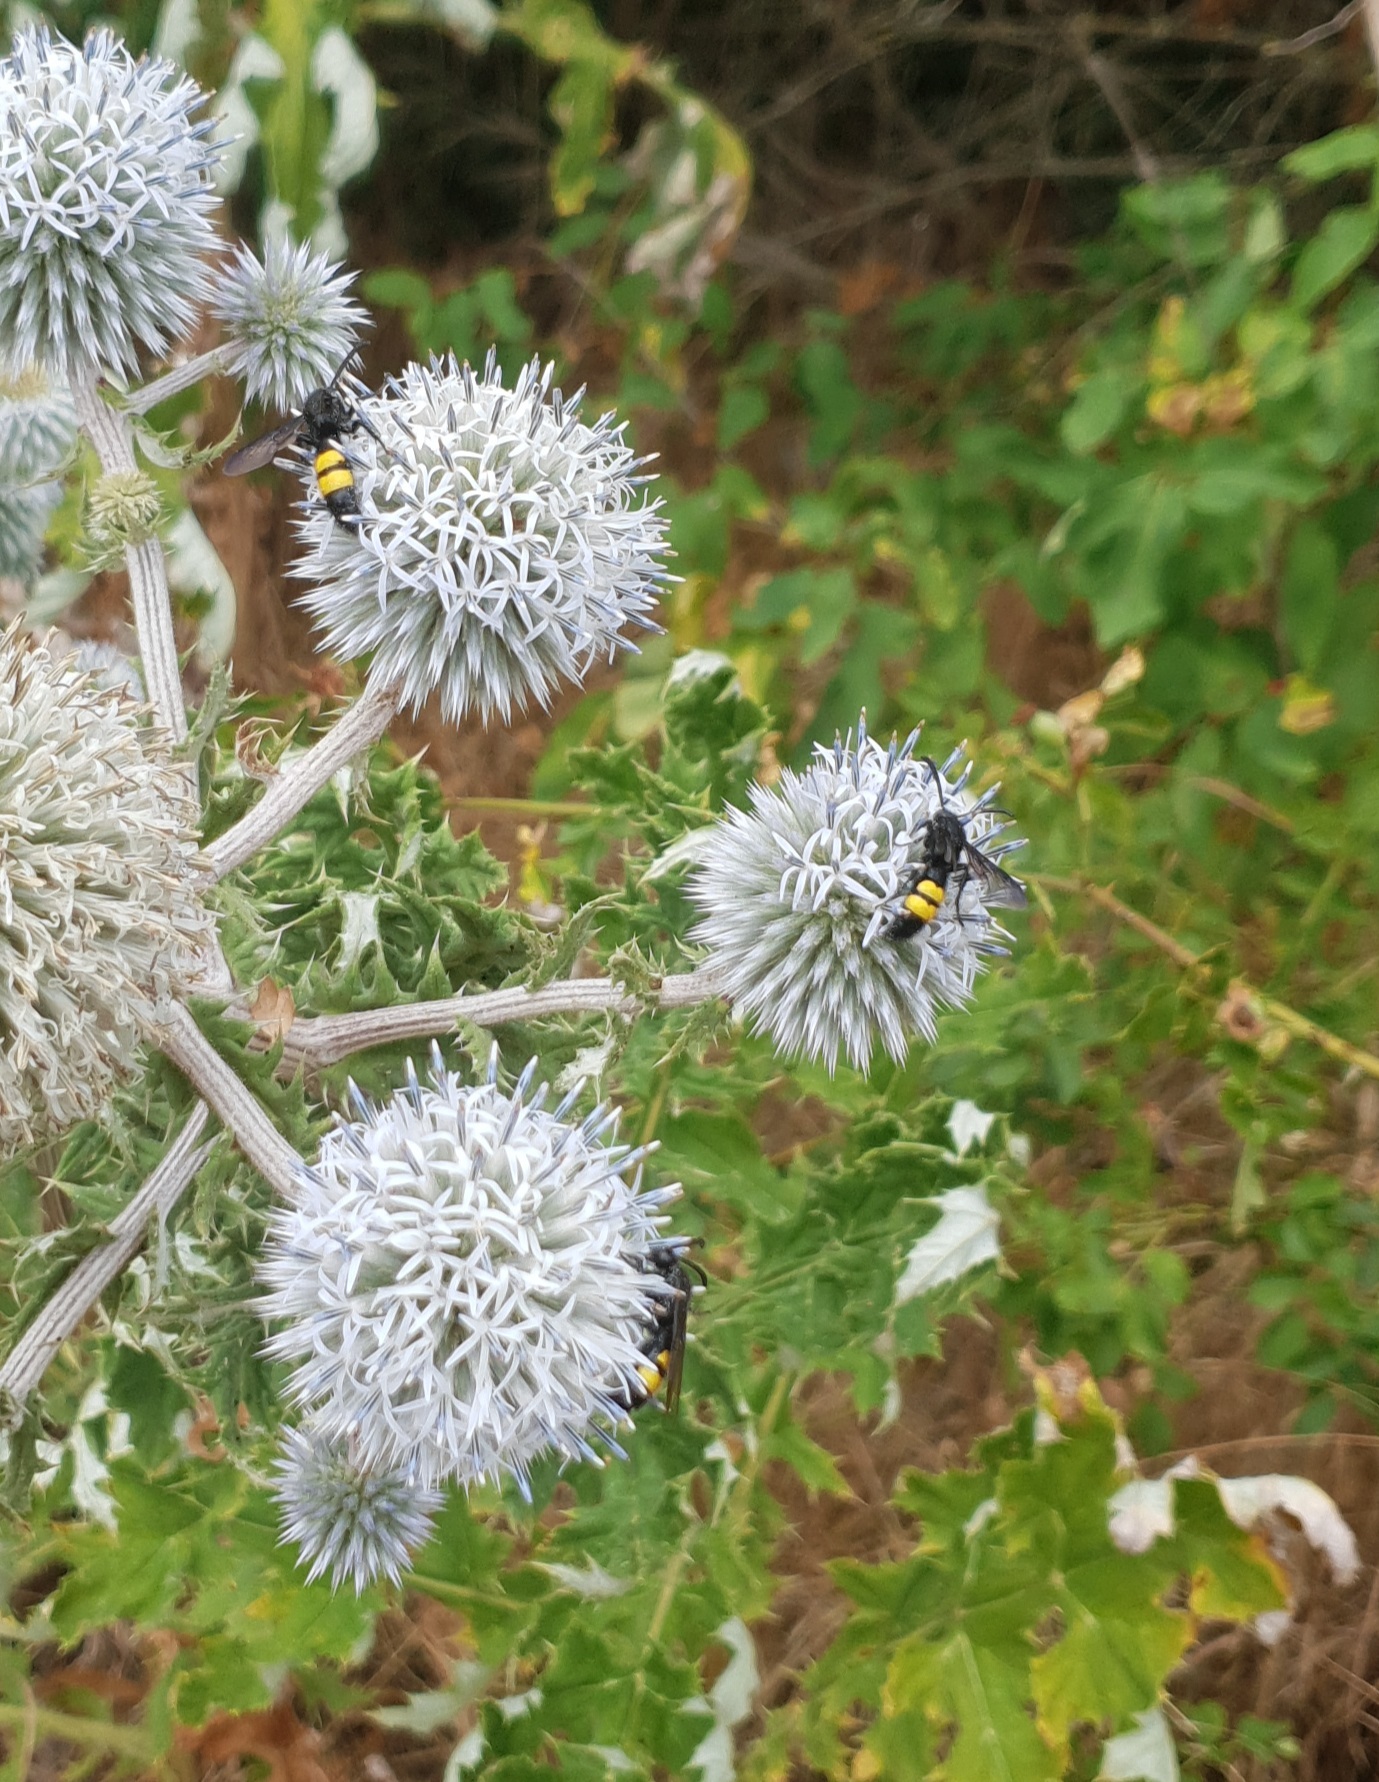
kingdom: Animalia
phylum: Arthropoda
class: Insecta
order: Hymenoptera
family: Scoliidae
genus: Scolia
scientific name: Scolia hirta
